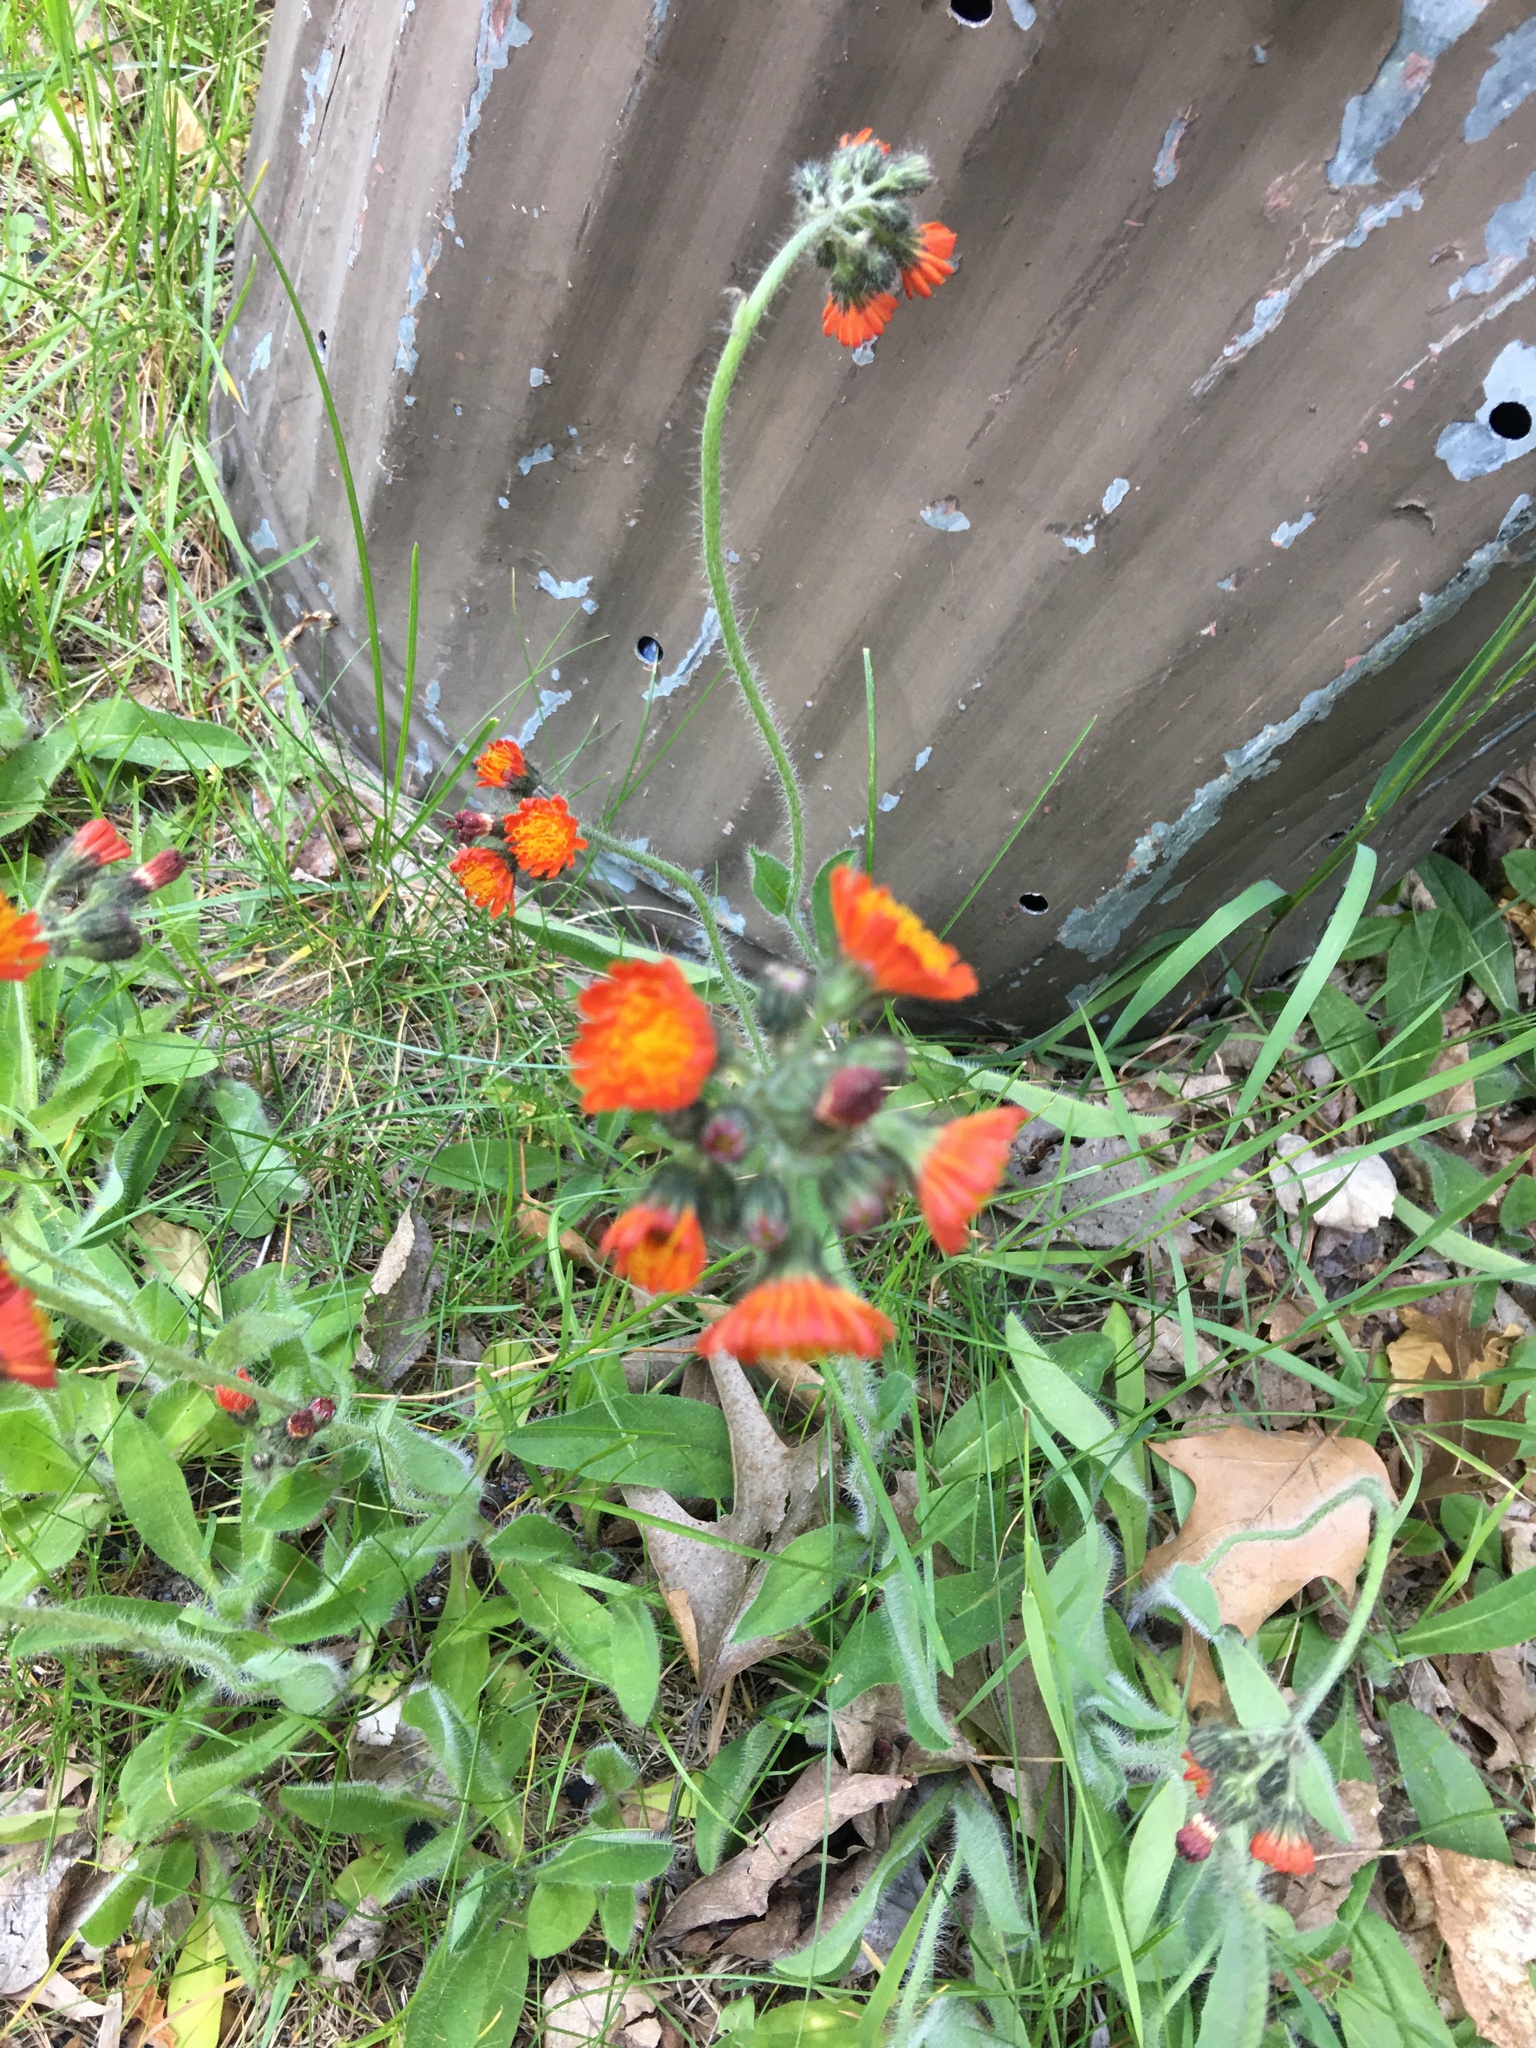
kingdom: Plantae
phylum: Tracheophyta
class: Magnoliopsida
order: Asterales
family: Asteraceae
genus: Pilosella
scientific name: Pilosella aurantiaca
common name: Fox-and-cubs
